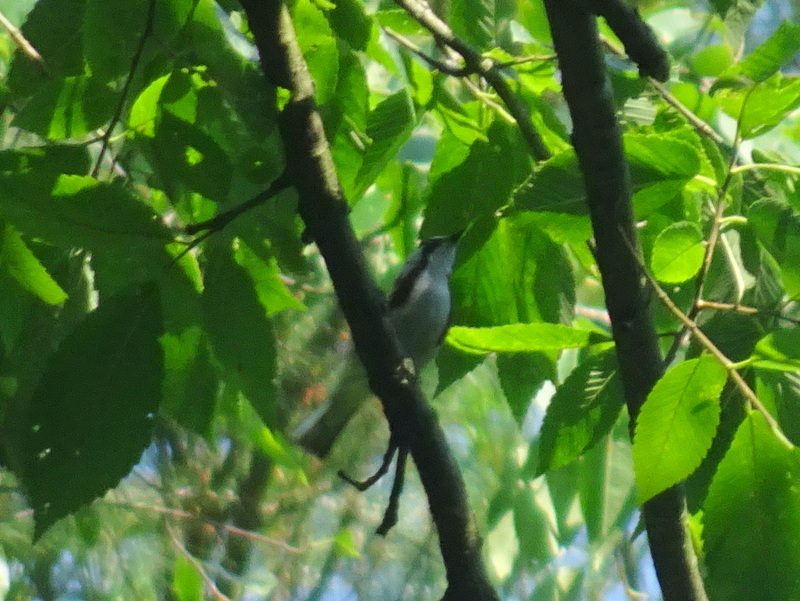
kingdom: Animalia
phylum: Chordata
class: Aves
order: Passeriformes
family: Parulidae
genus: Setophaga
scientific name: Setophaga pensylvanica
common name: Chestnut-sided warbler
